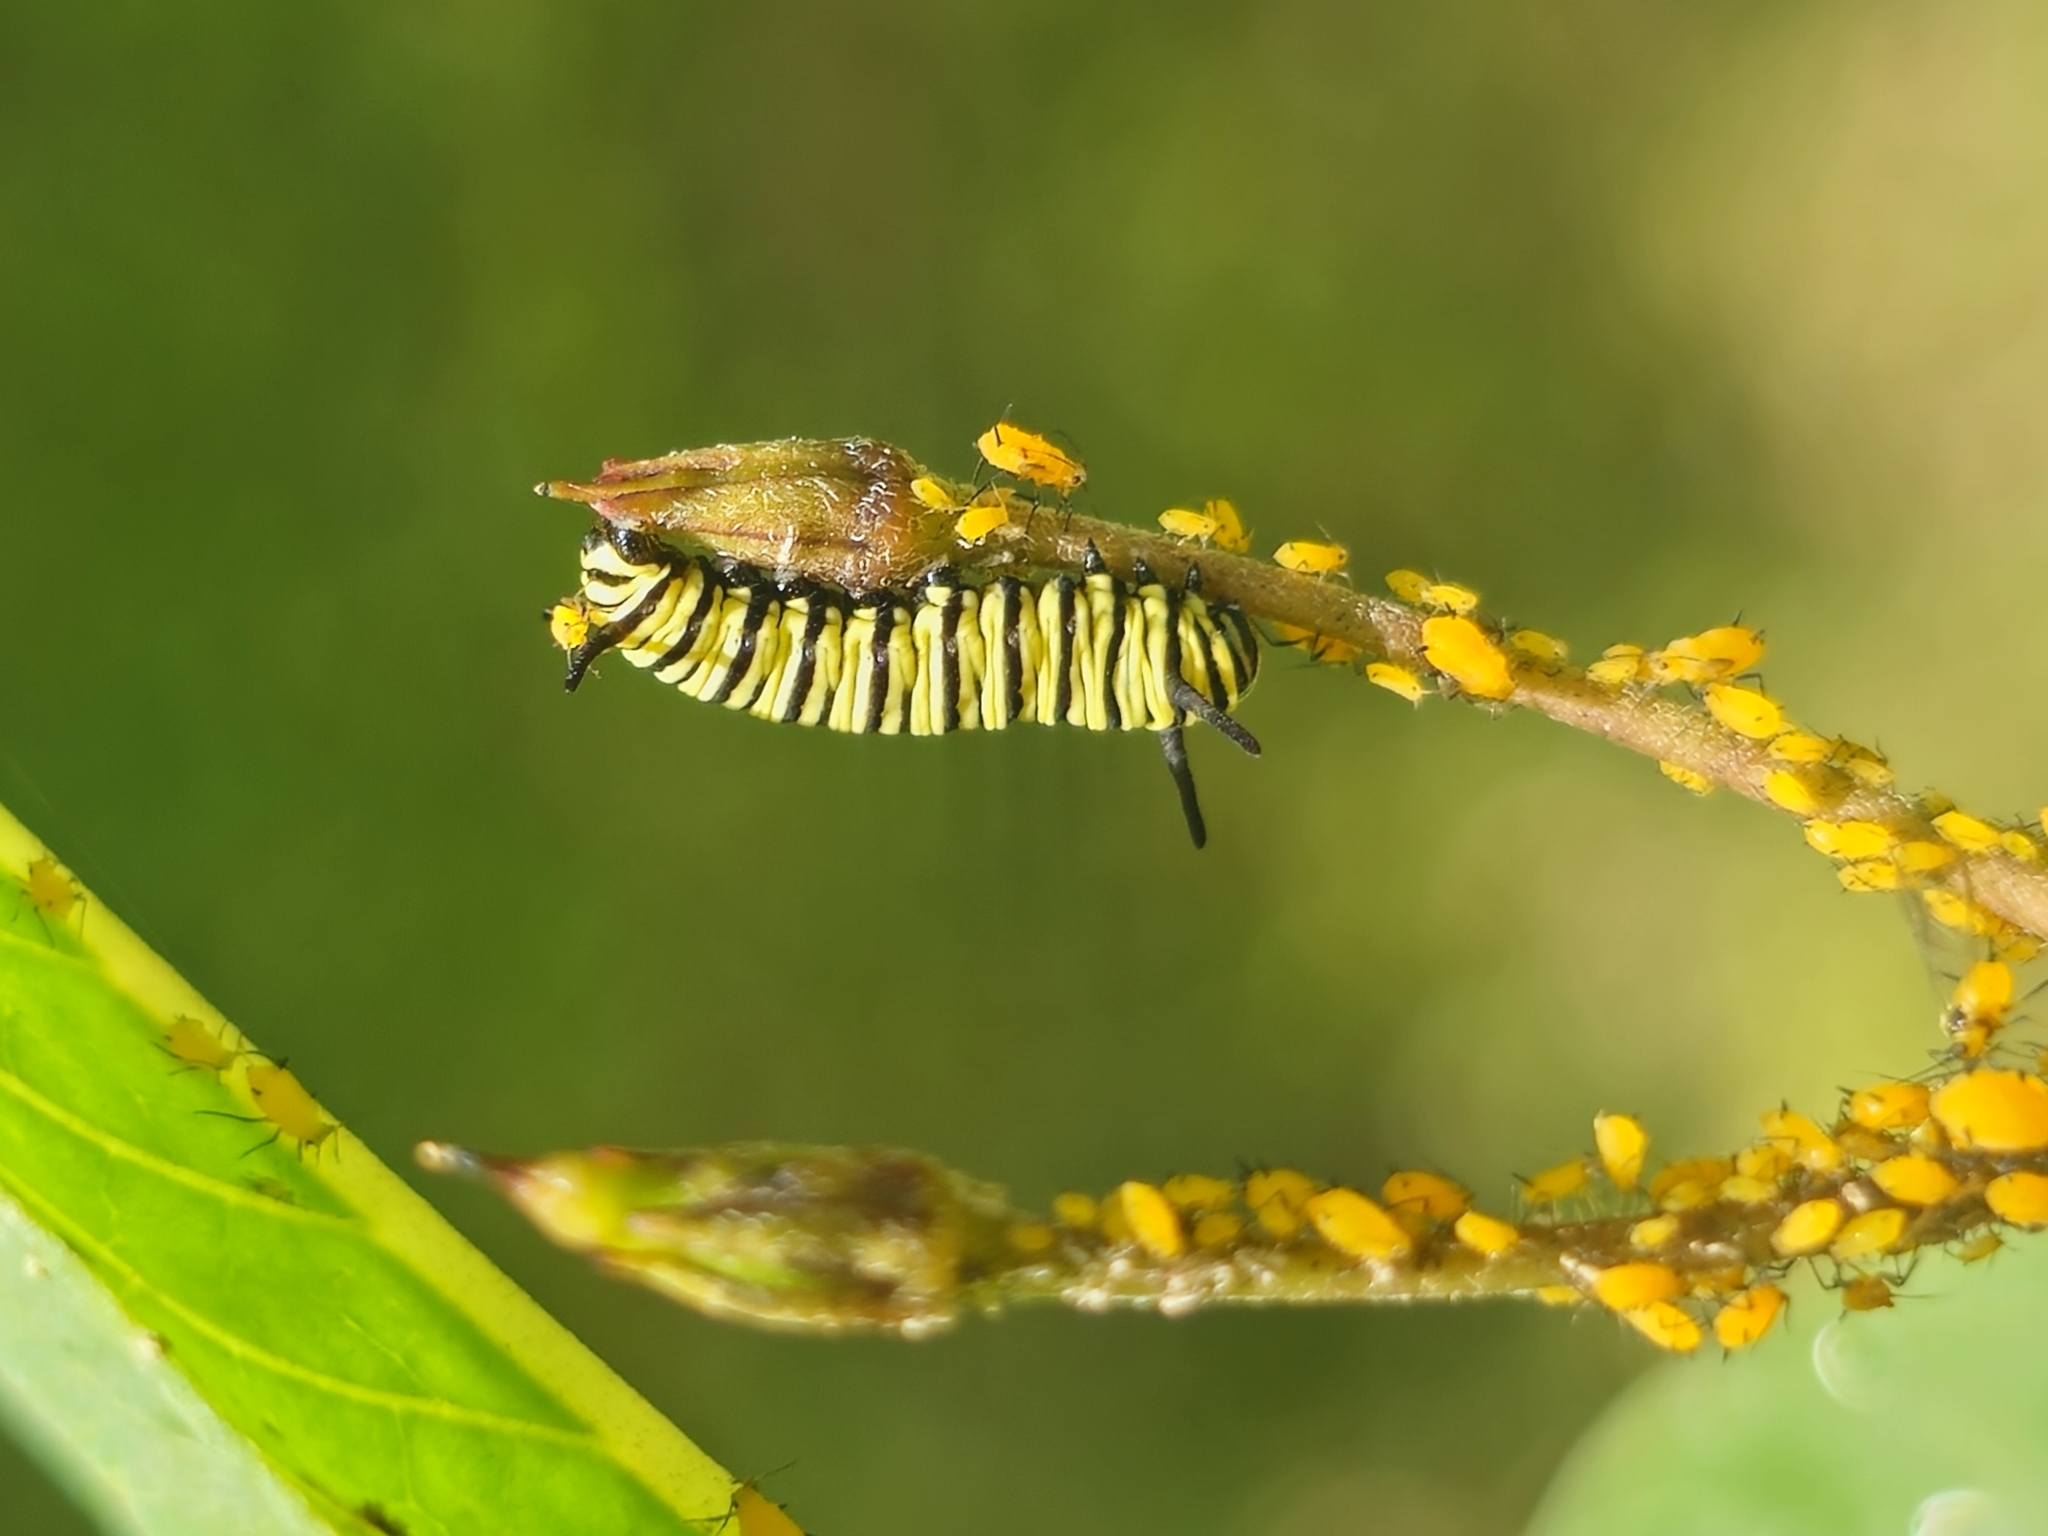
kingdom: Animalia
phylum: Arthropoda
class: Insecta
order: Lepidoptera
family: Nymphalidae
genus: Danaus
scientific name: Danaus erippus
